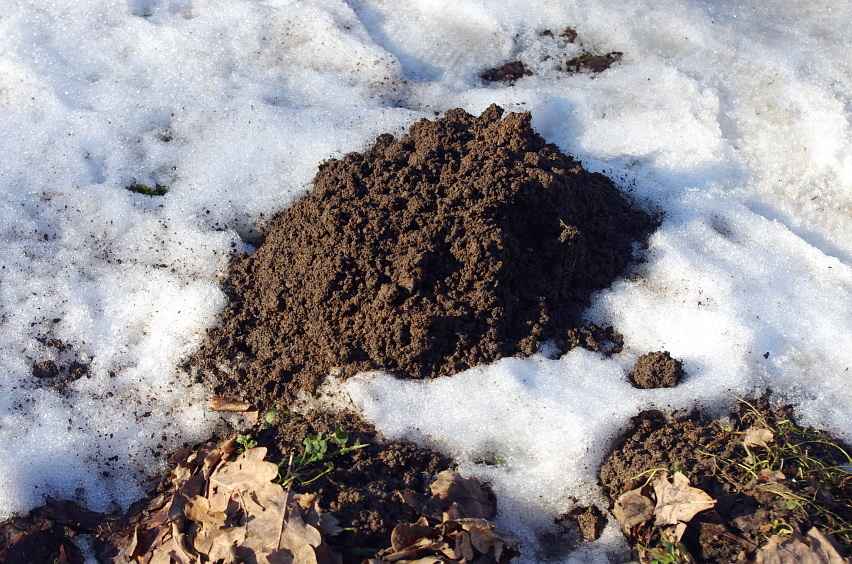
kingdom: Animalia
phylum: Chordata
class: Mammalia
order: Soricomorpha
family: Talpidae
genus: Talpa
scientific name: Talpa europaea
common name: European mole
